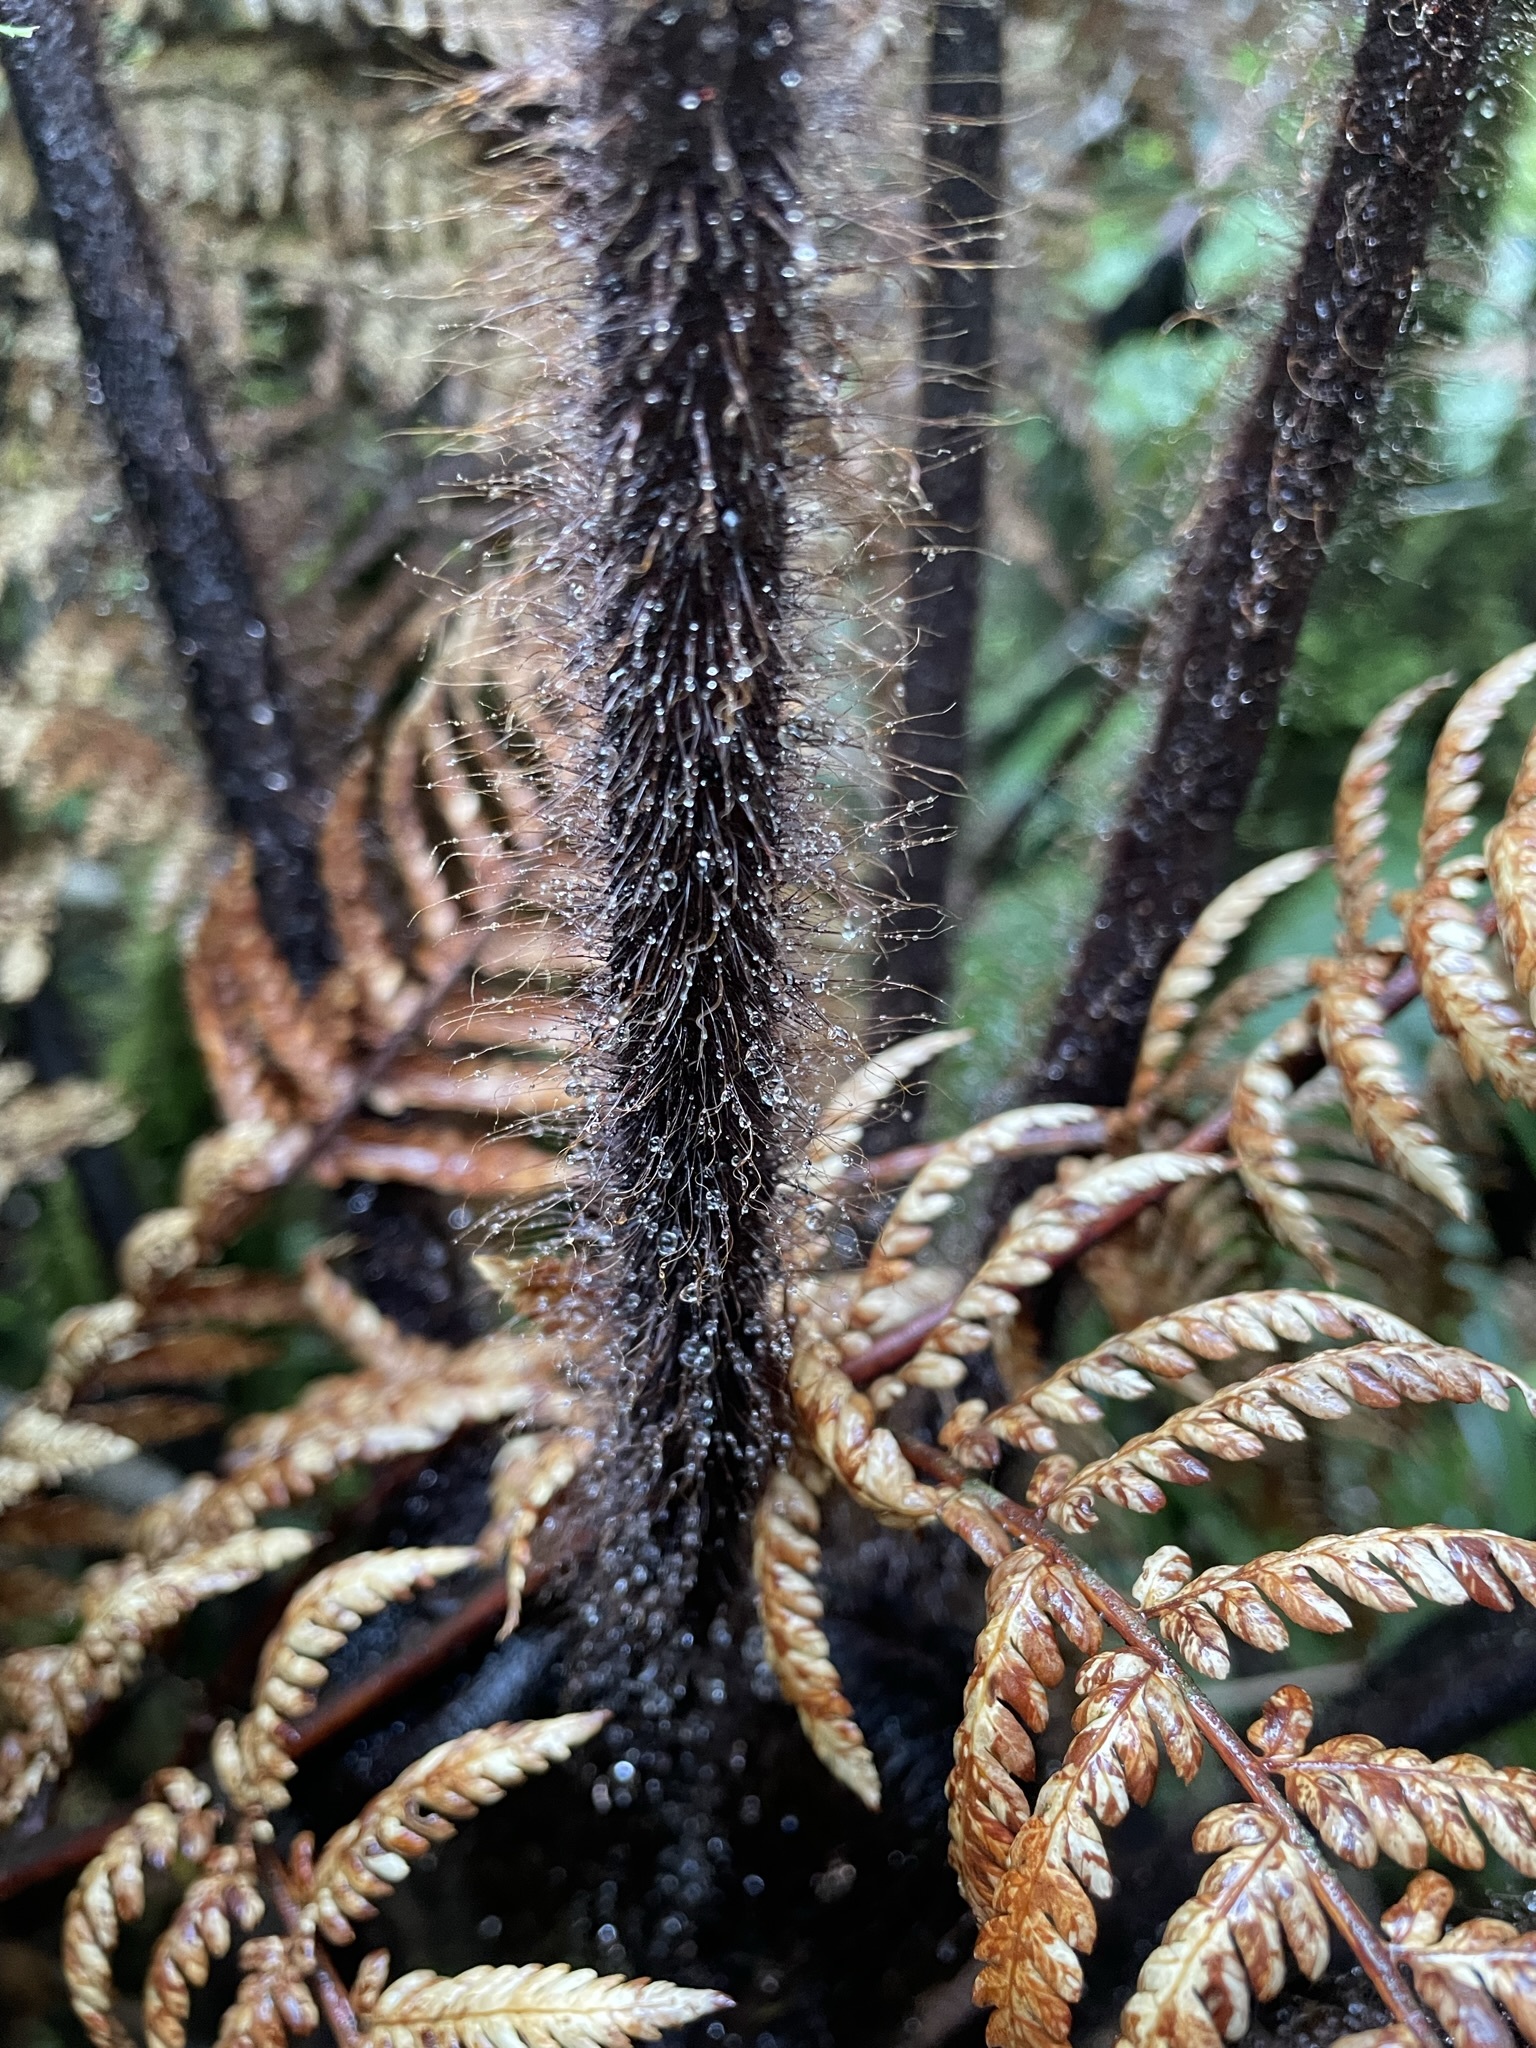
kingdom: Plantae
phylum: Tracheophyta
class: Polypodiopsida
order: Cyatheales
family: Dicksoniaceae
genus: Dicksonia
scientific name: Dicksonia squarrosa
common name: Hard treefern
